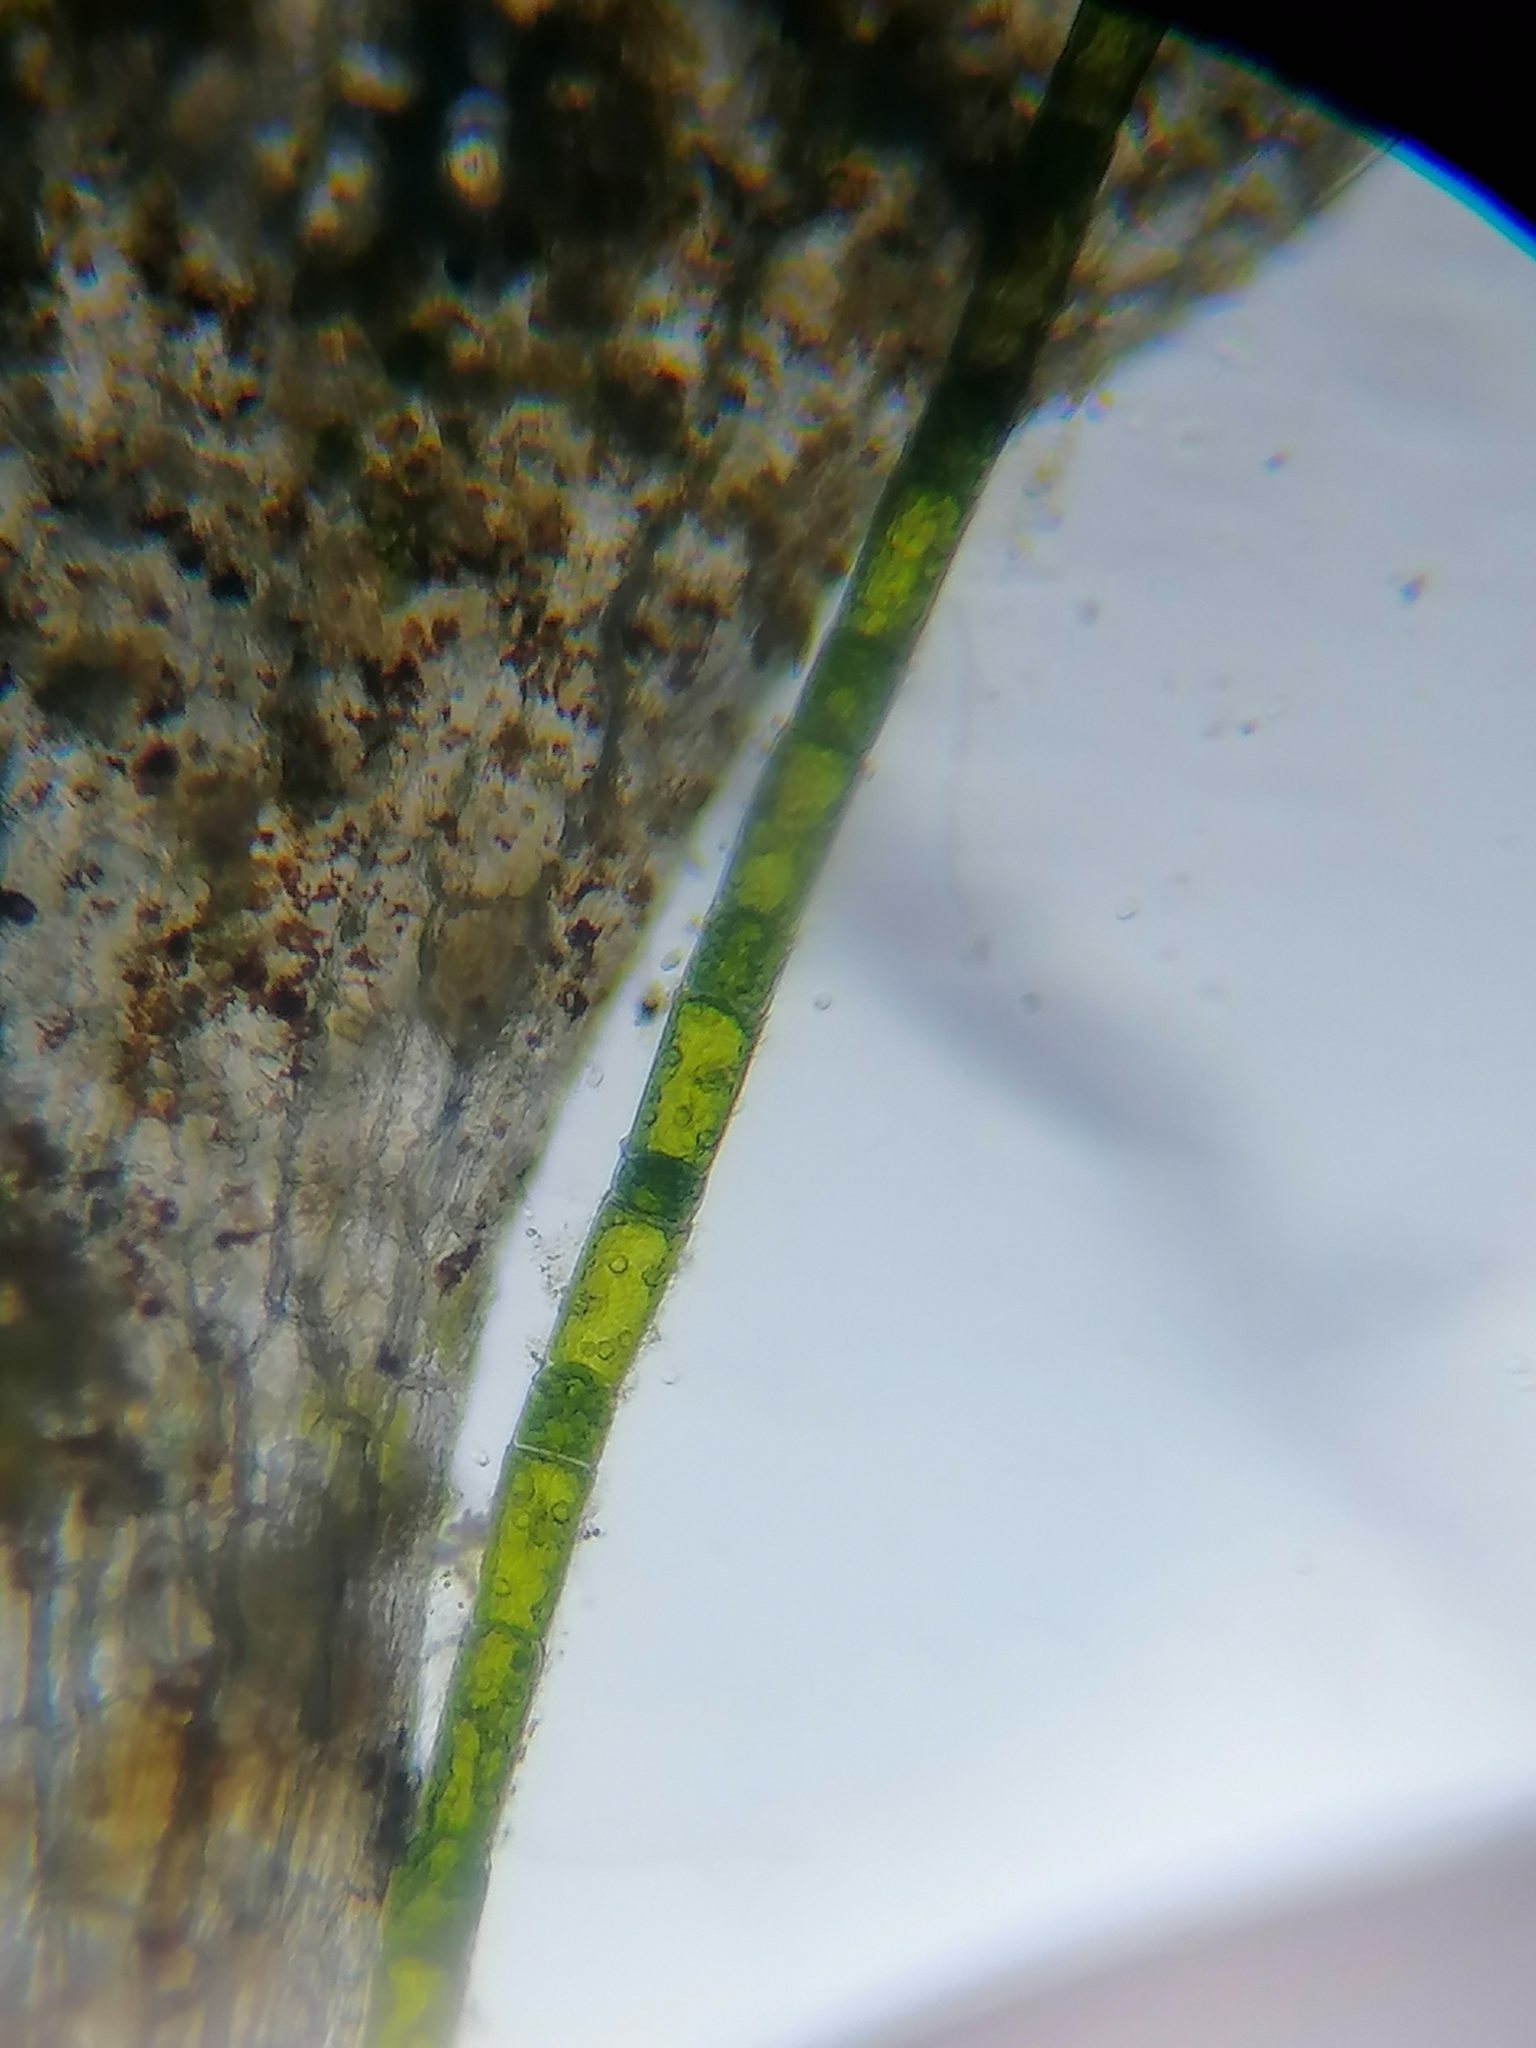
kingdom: Plantae
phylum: Chlorophyta
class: Chlorophyceae
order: Oedogoniales
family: Oedogoniaceae
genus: Oedogonium
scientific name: Oedogonium
